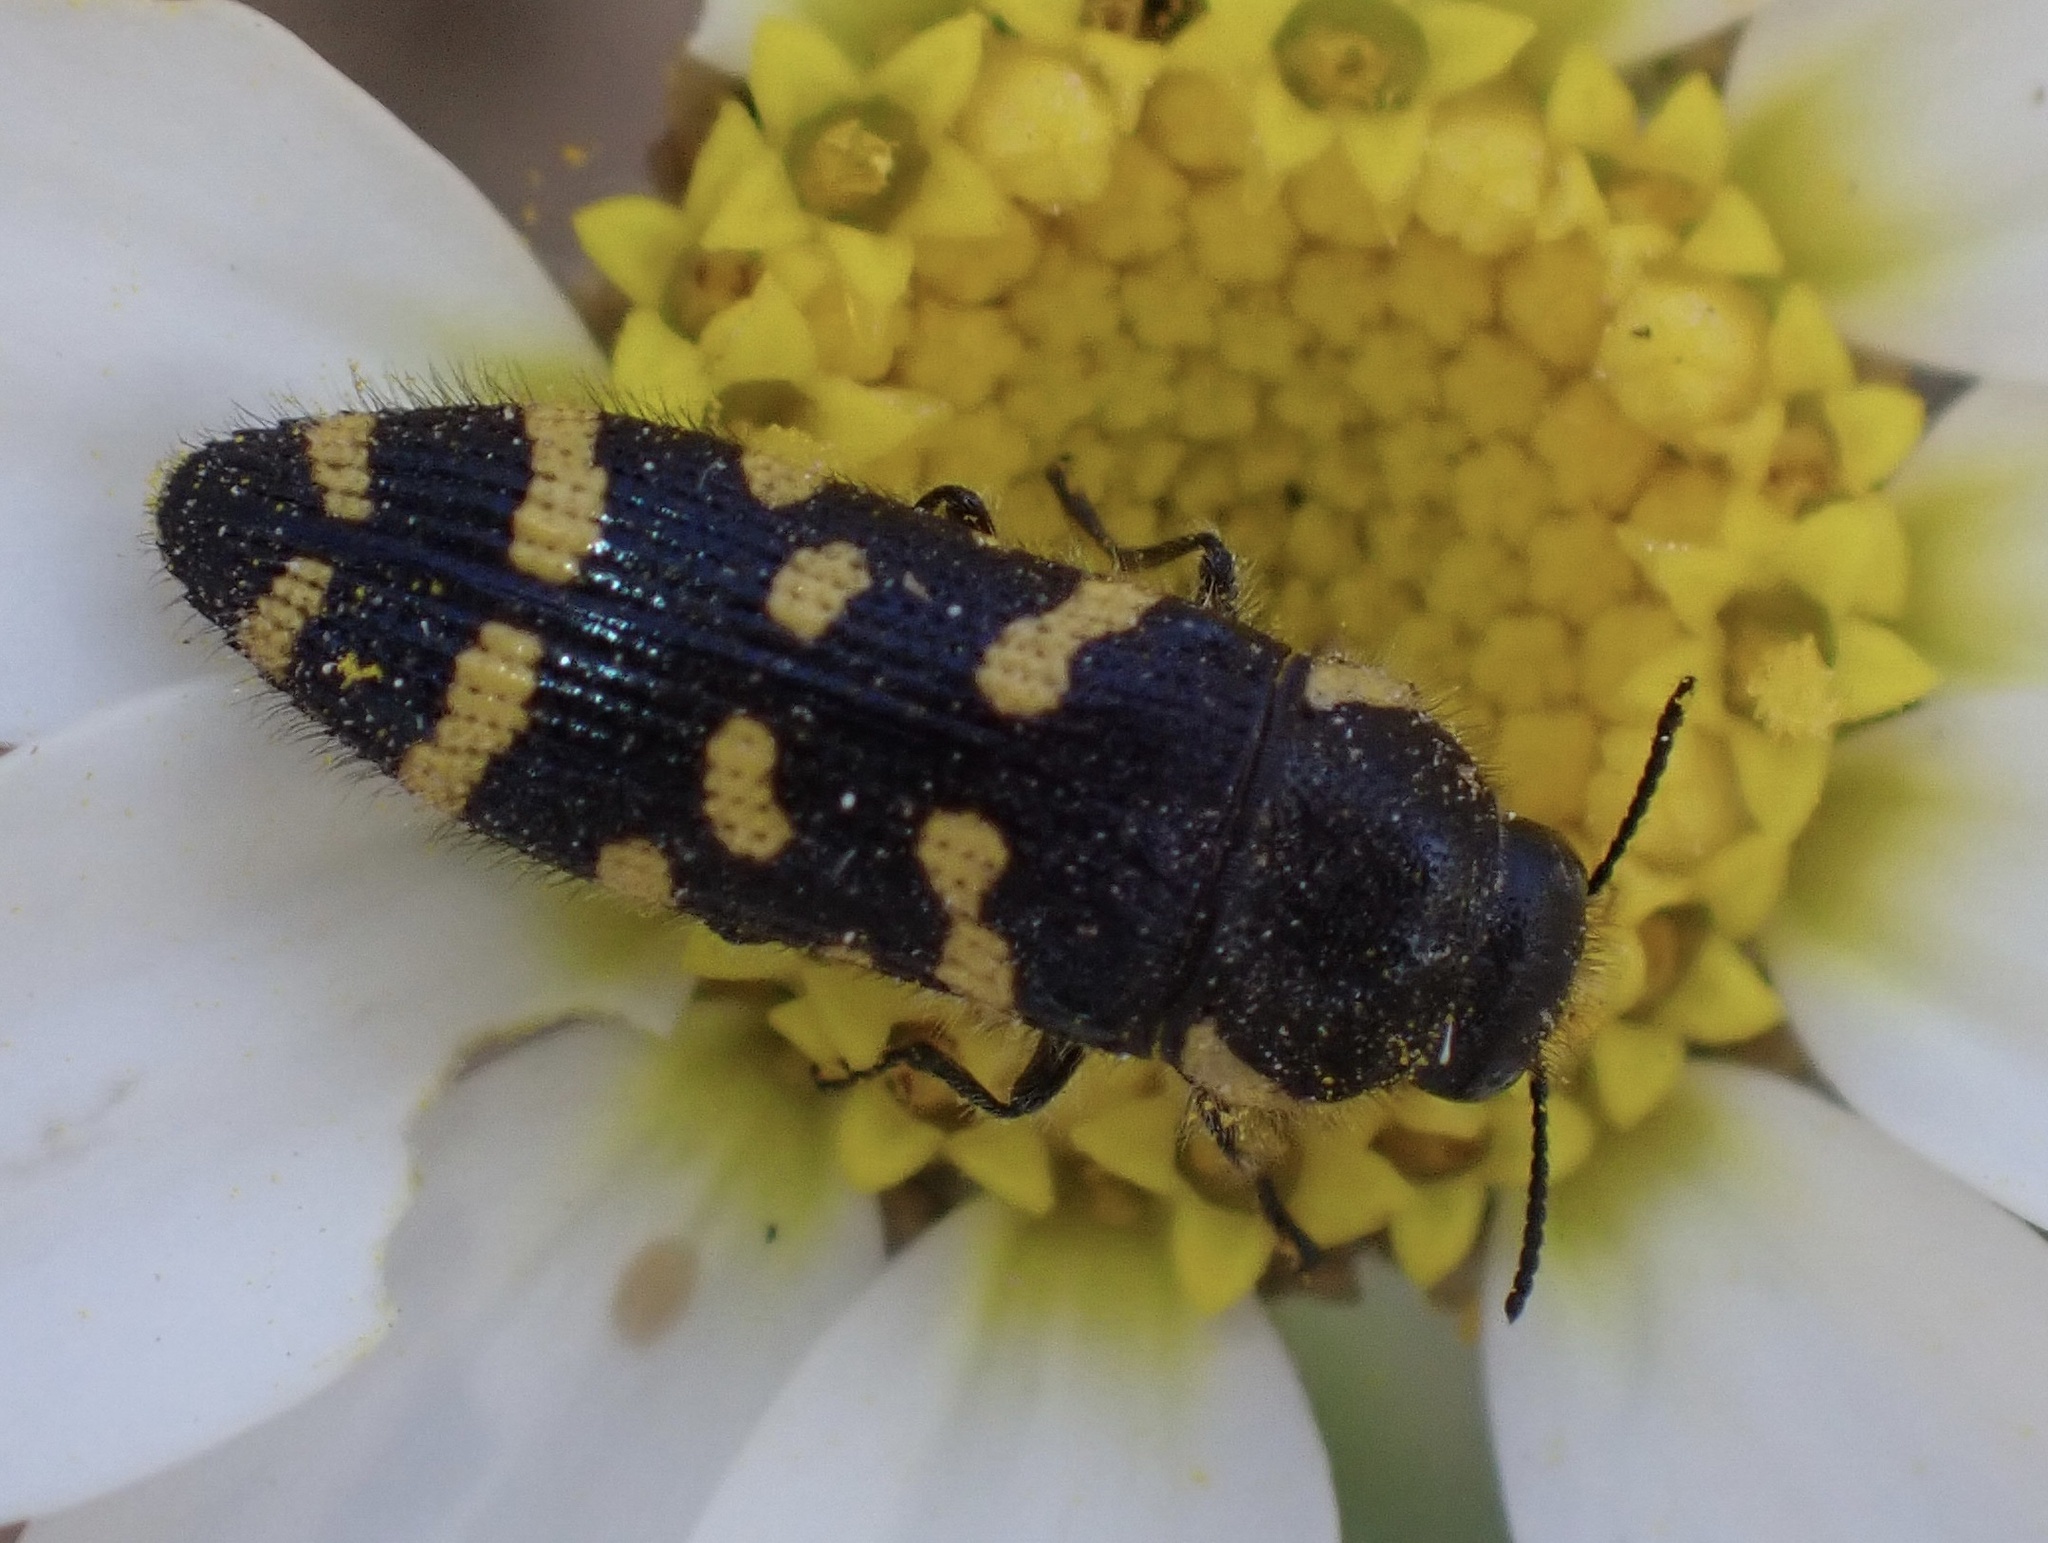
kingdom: Animalia
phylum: Arthropoda
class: Insecta
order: Coleoptera
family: Buprestidae
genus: Acmaeodera
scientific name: Acmaeodera quadrifasciata
